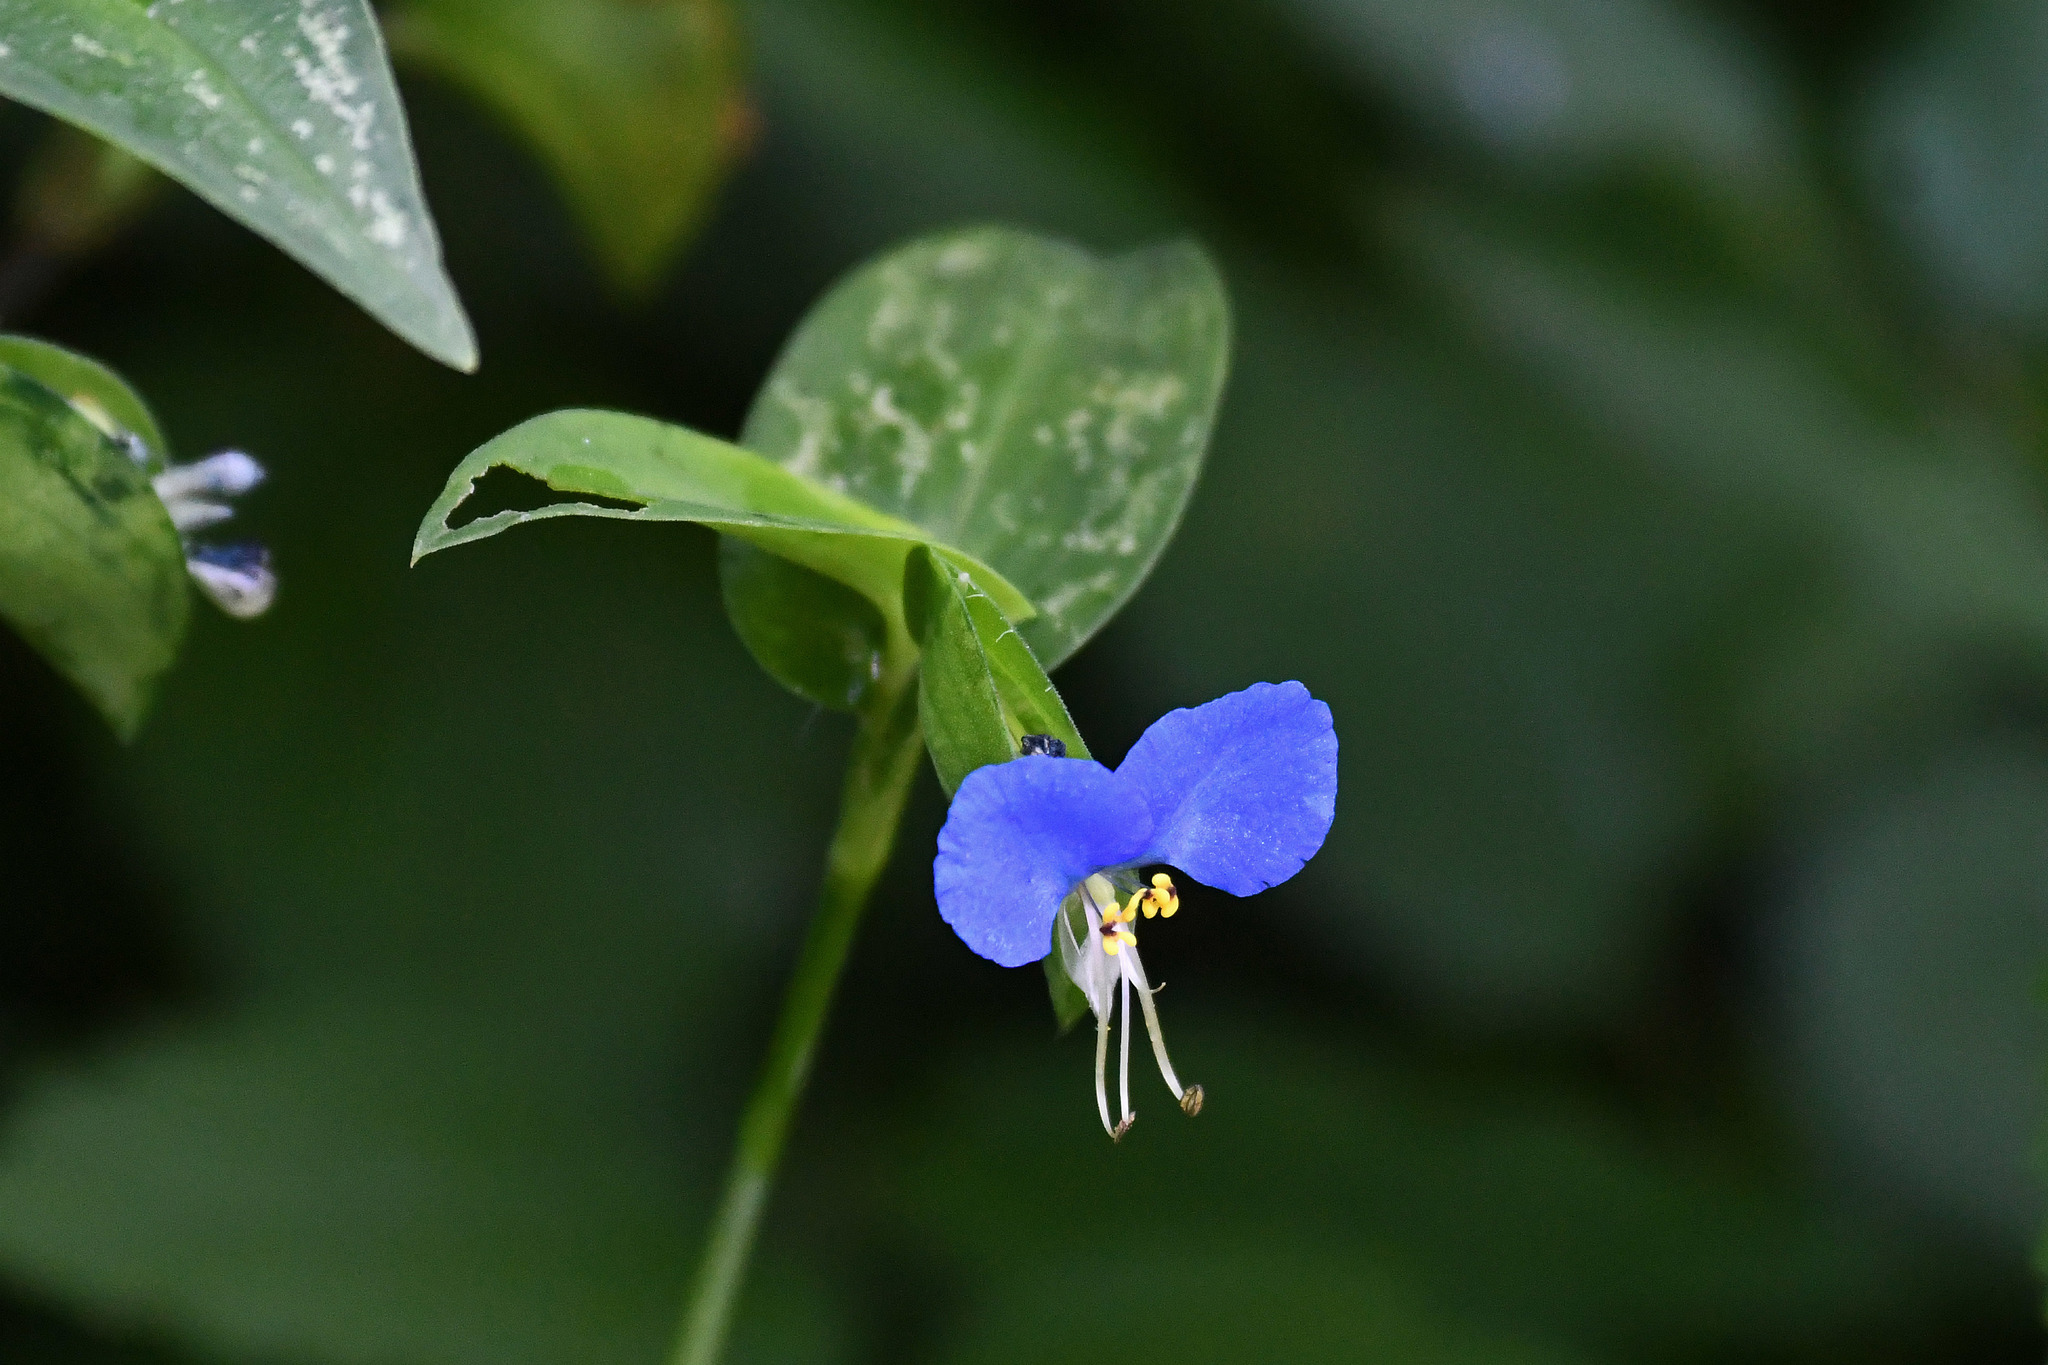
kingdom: Plantae
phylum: Tracheophyta
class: Liliopsida
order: Commelinales
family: Commelinaceae
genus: Commelina
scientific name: Commelina communis
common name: Asiatic dayflower
